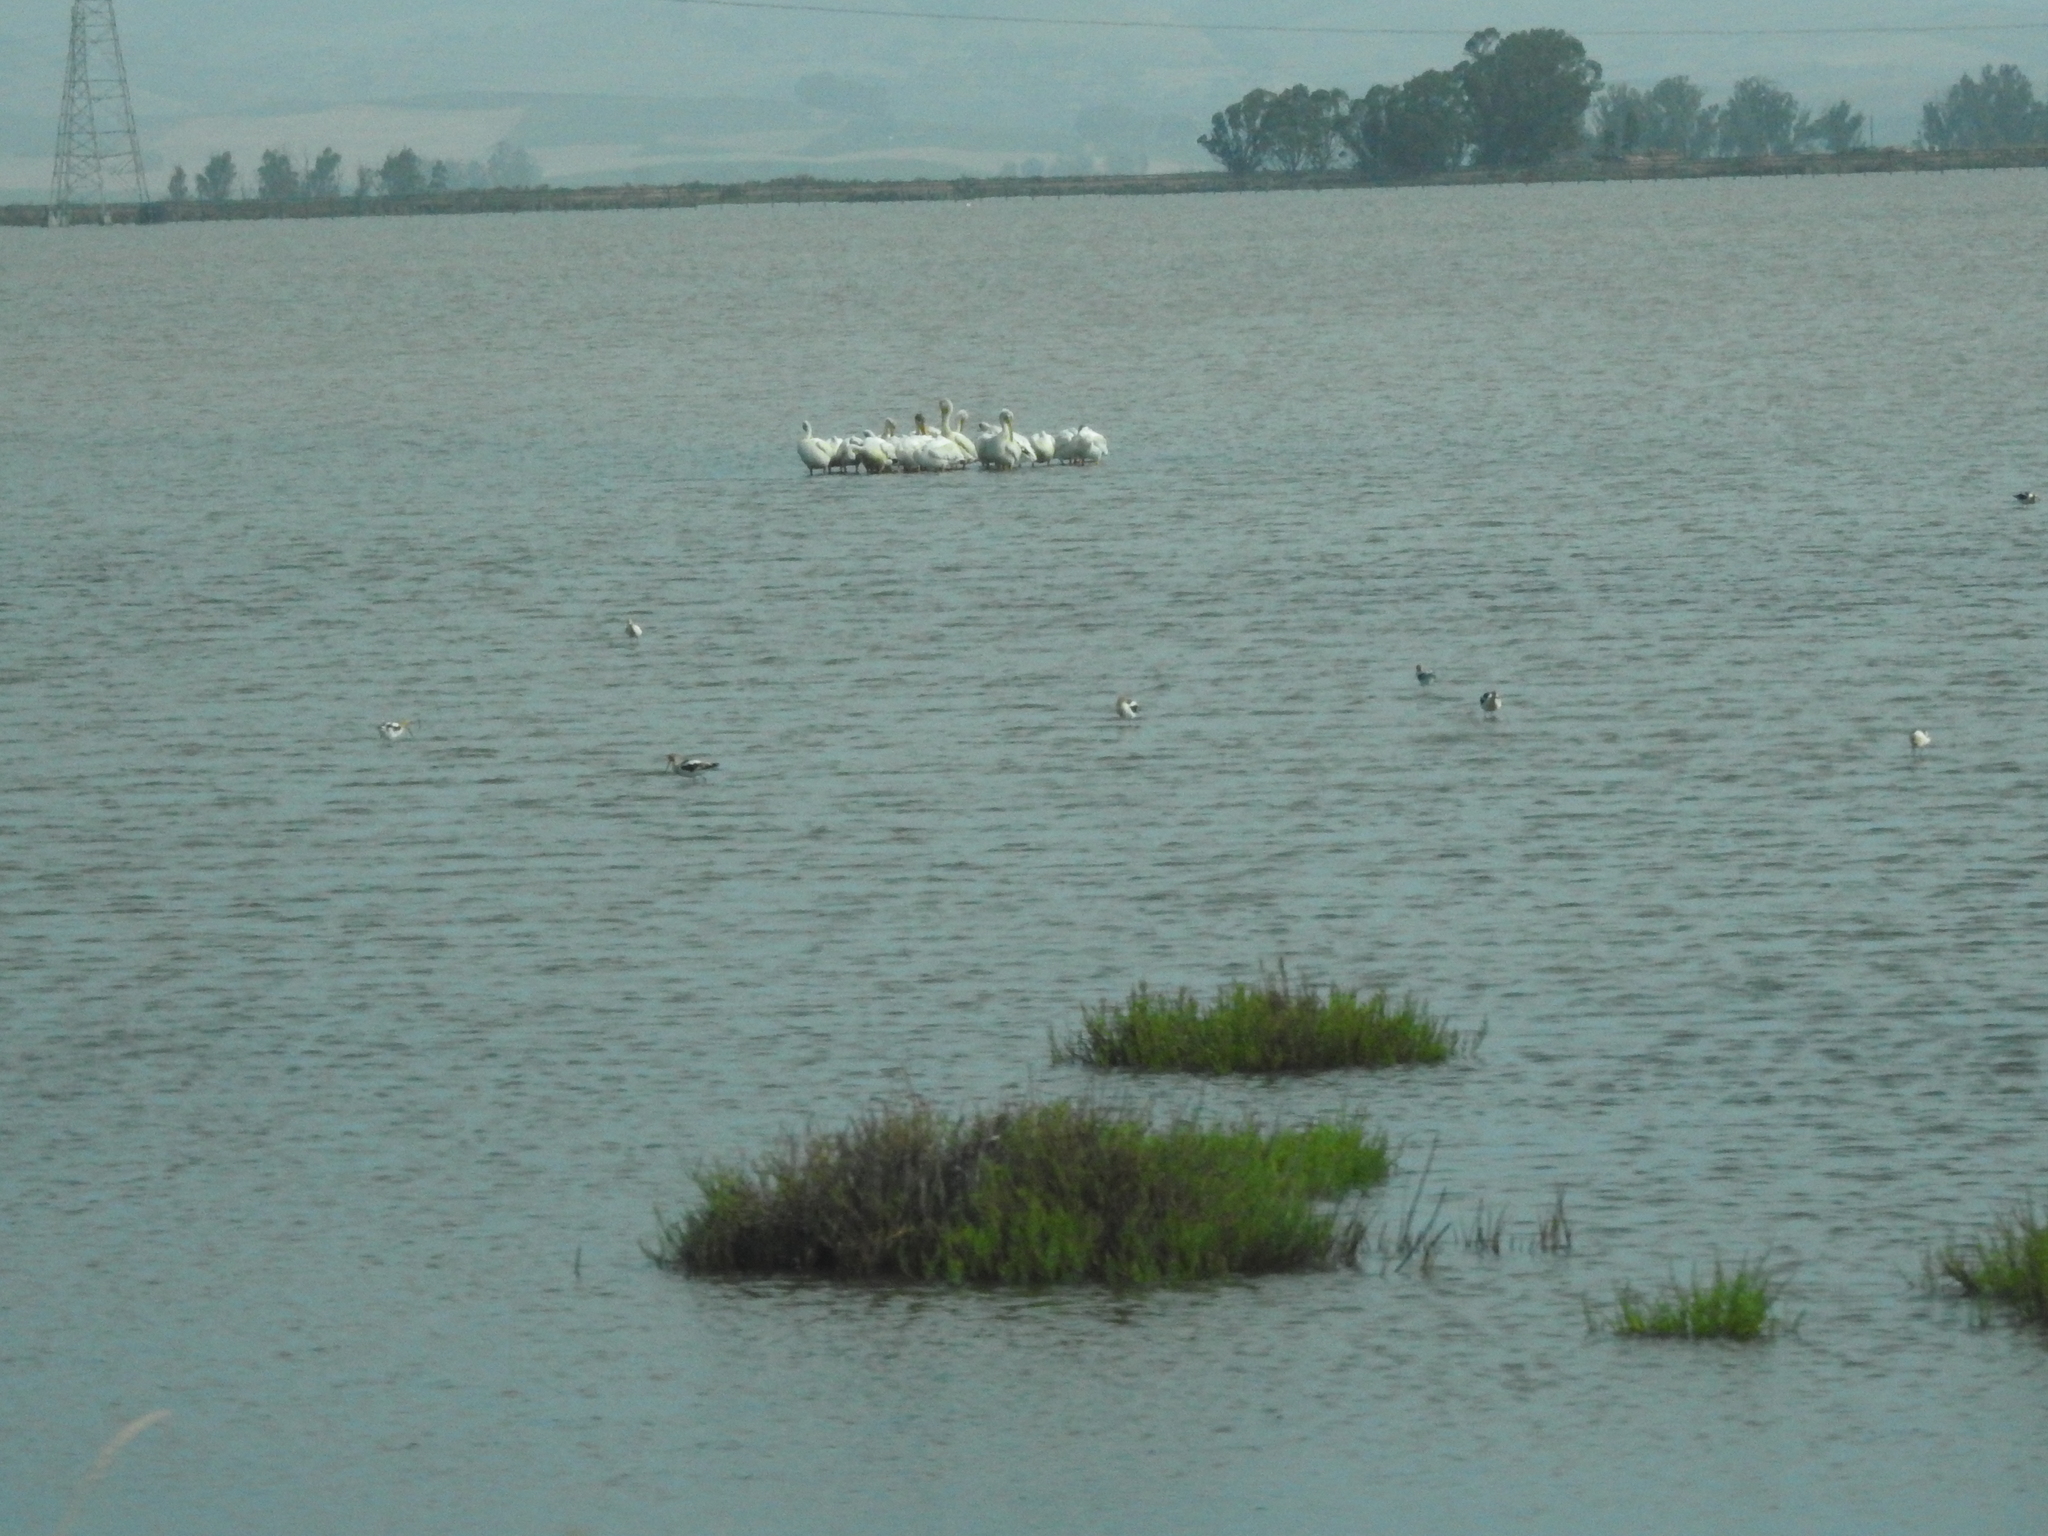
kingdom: Animalia
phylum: Chordata
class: Aves
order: Charadriiformes
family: Recurvirostridae
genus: Recurvirostra
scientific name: Recurvirostra americana
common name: American avocet
